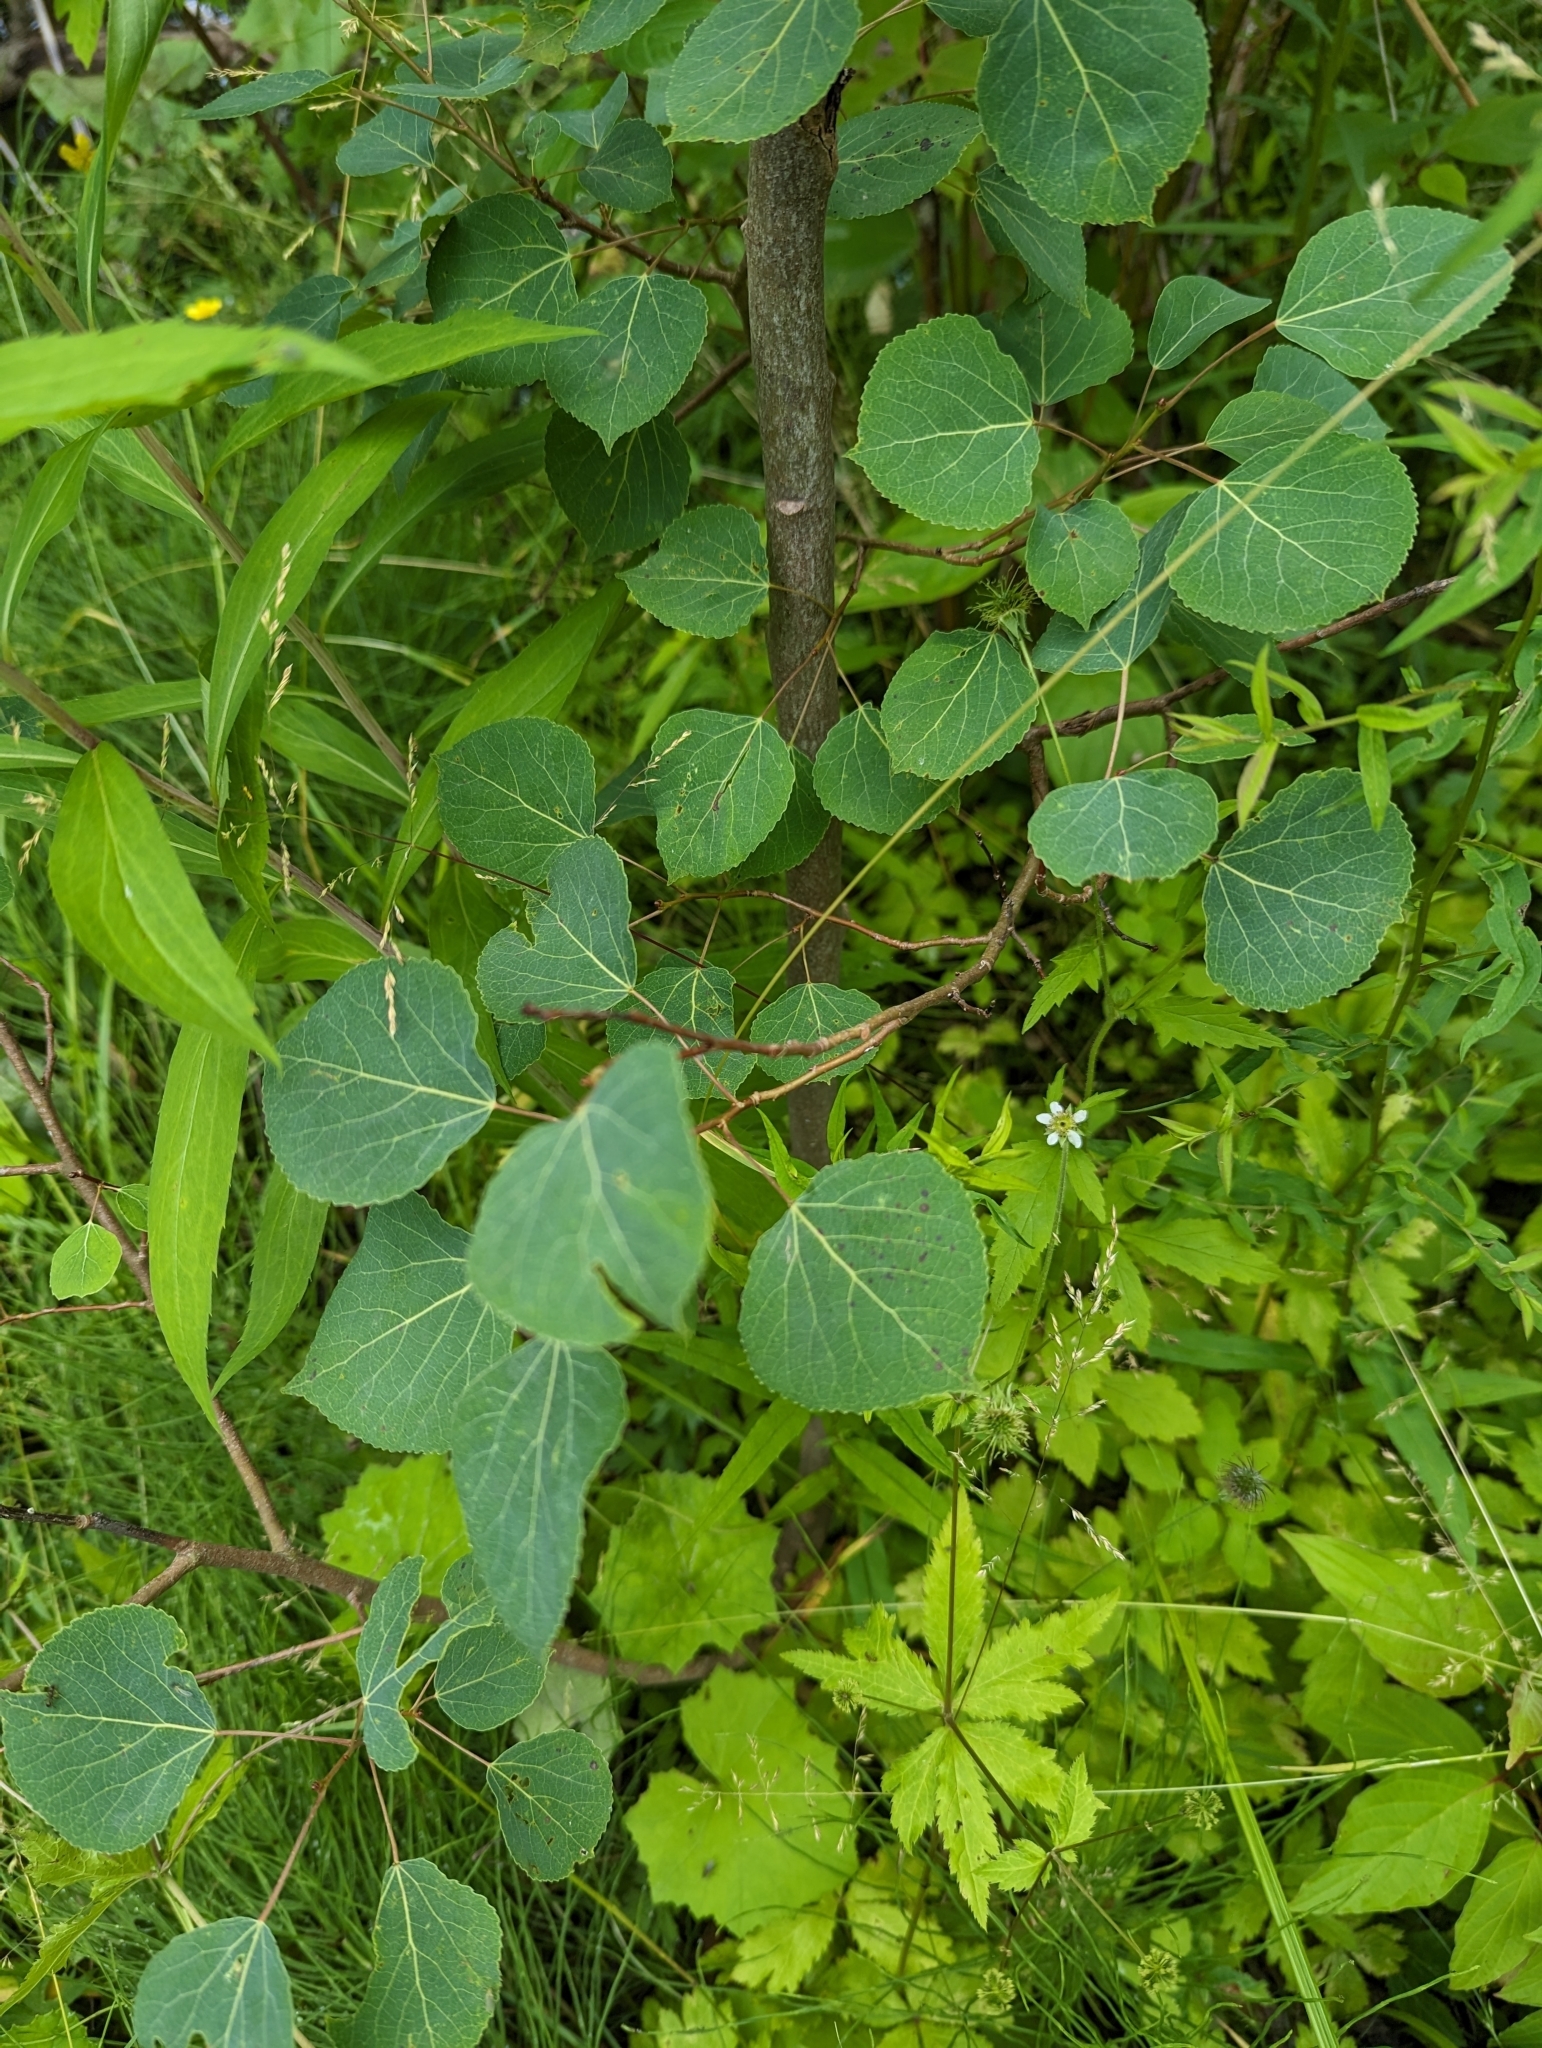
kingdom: Plantae
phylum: Tracheophyta
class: Magnoliopsida
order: Malpighiales
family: Salicaceae
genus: Populus
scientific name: Populus tremuloides
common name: Quaking aspen
